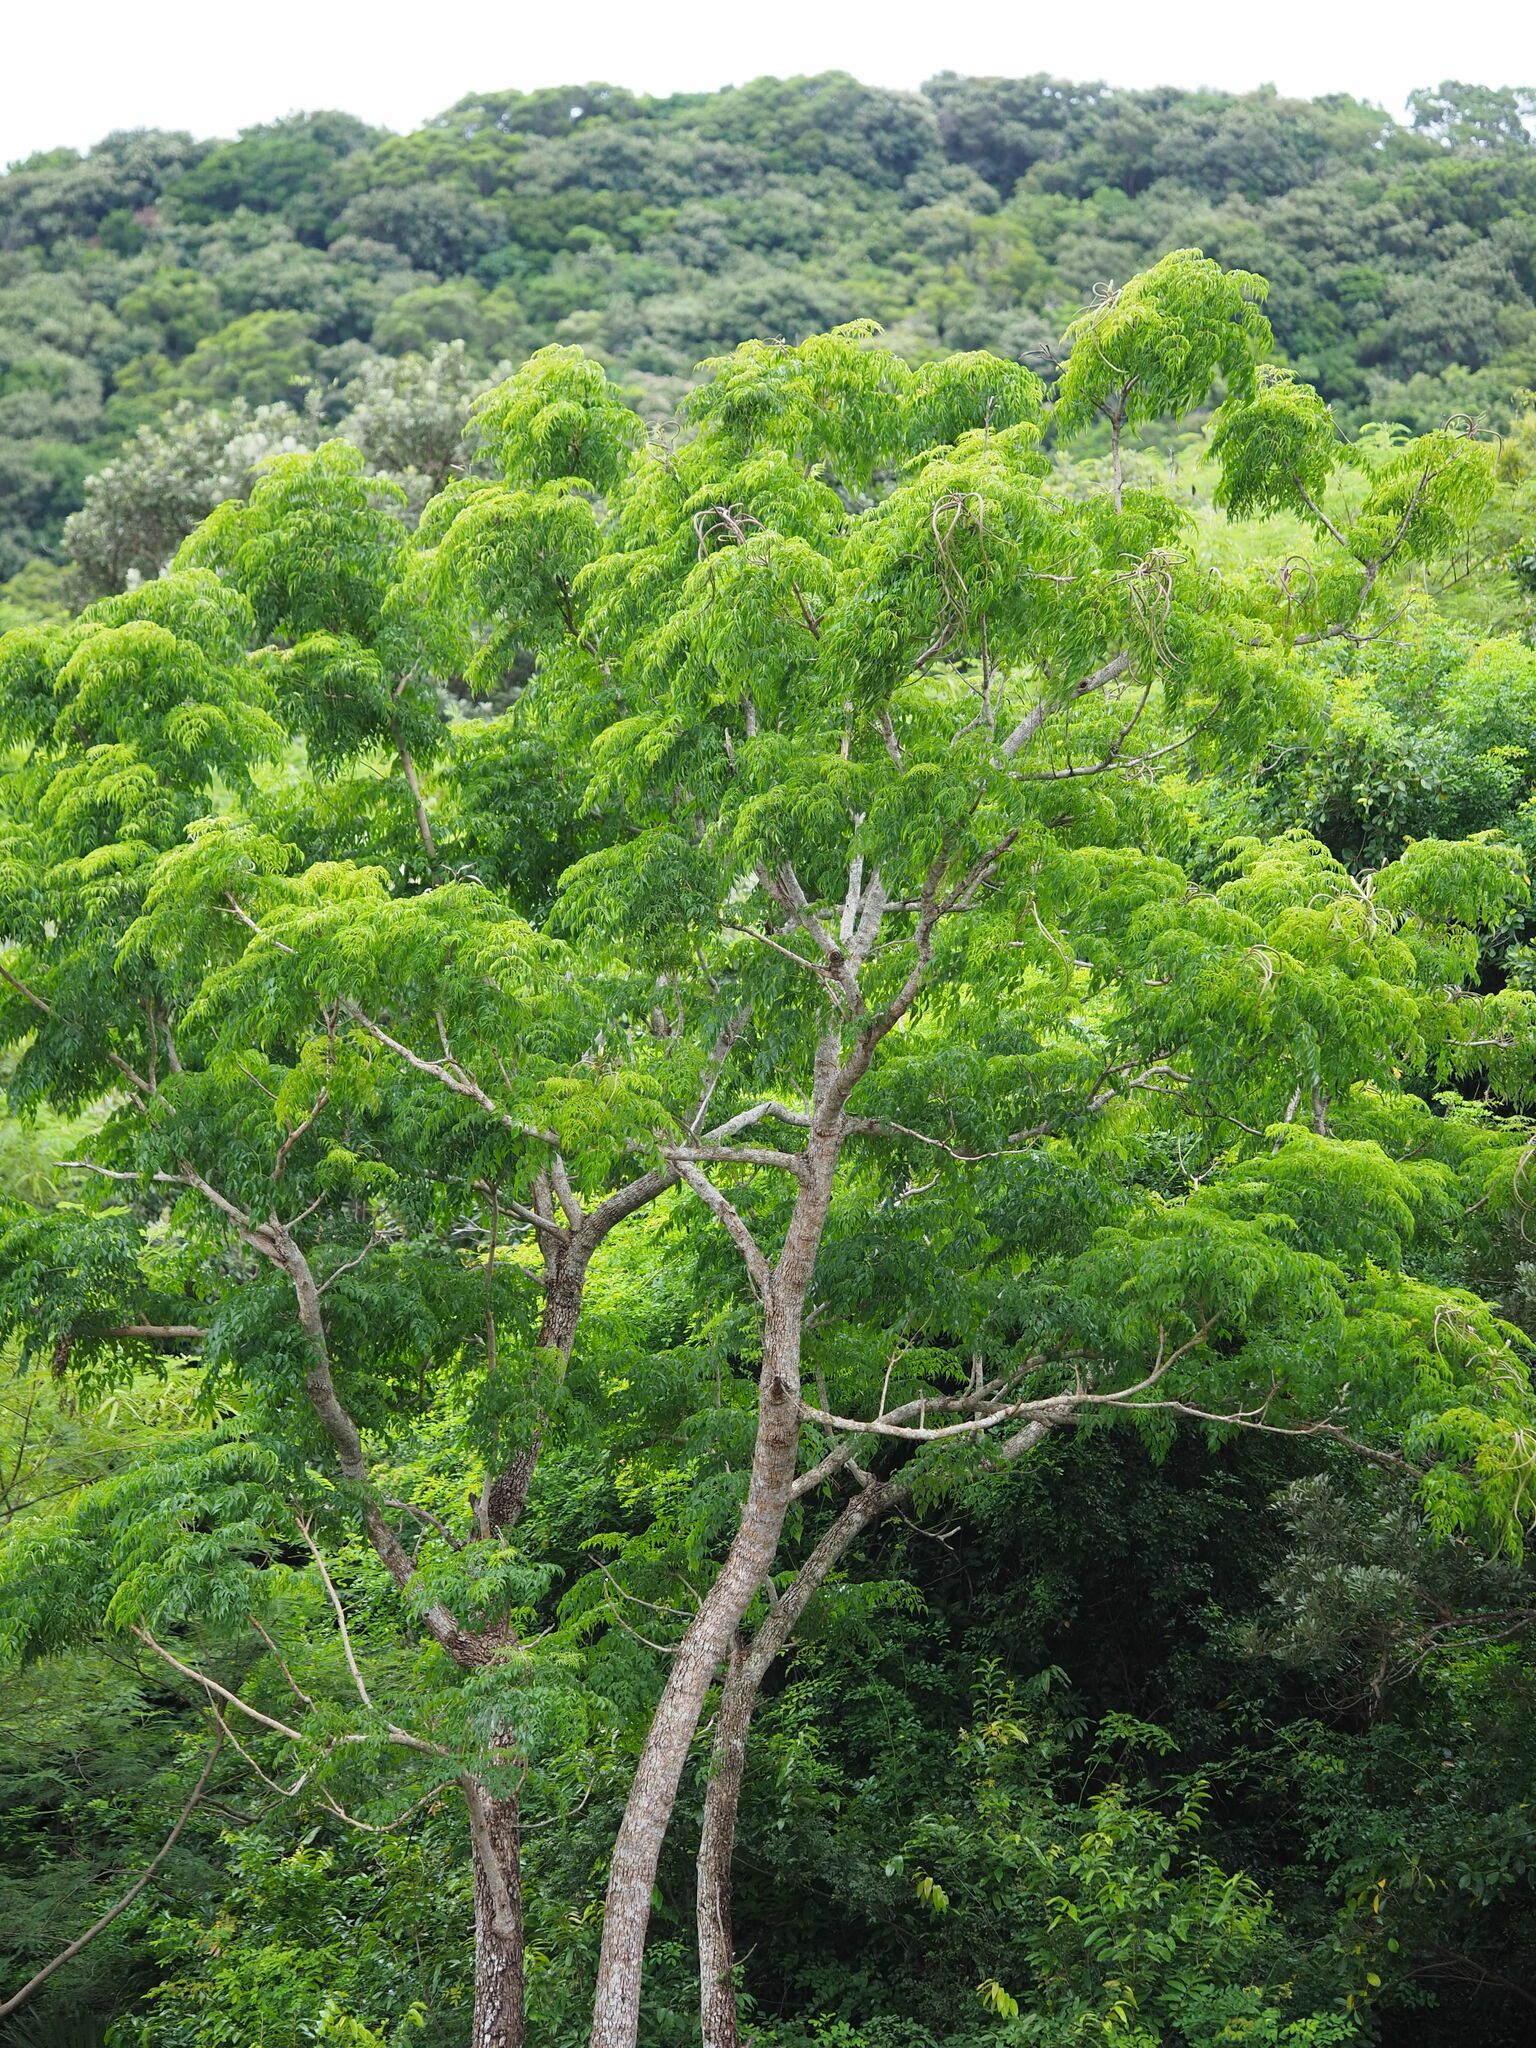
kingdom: Plantae
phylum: Tracheophyta
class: Magnoliopsida
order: Lamiales
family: Bignoniaceae
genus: Radermachera
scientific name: Radermachera sinica
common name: China doll plant
